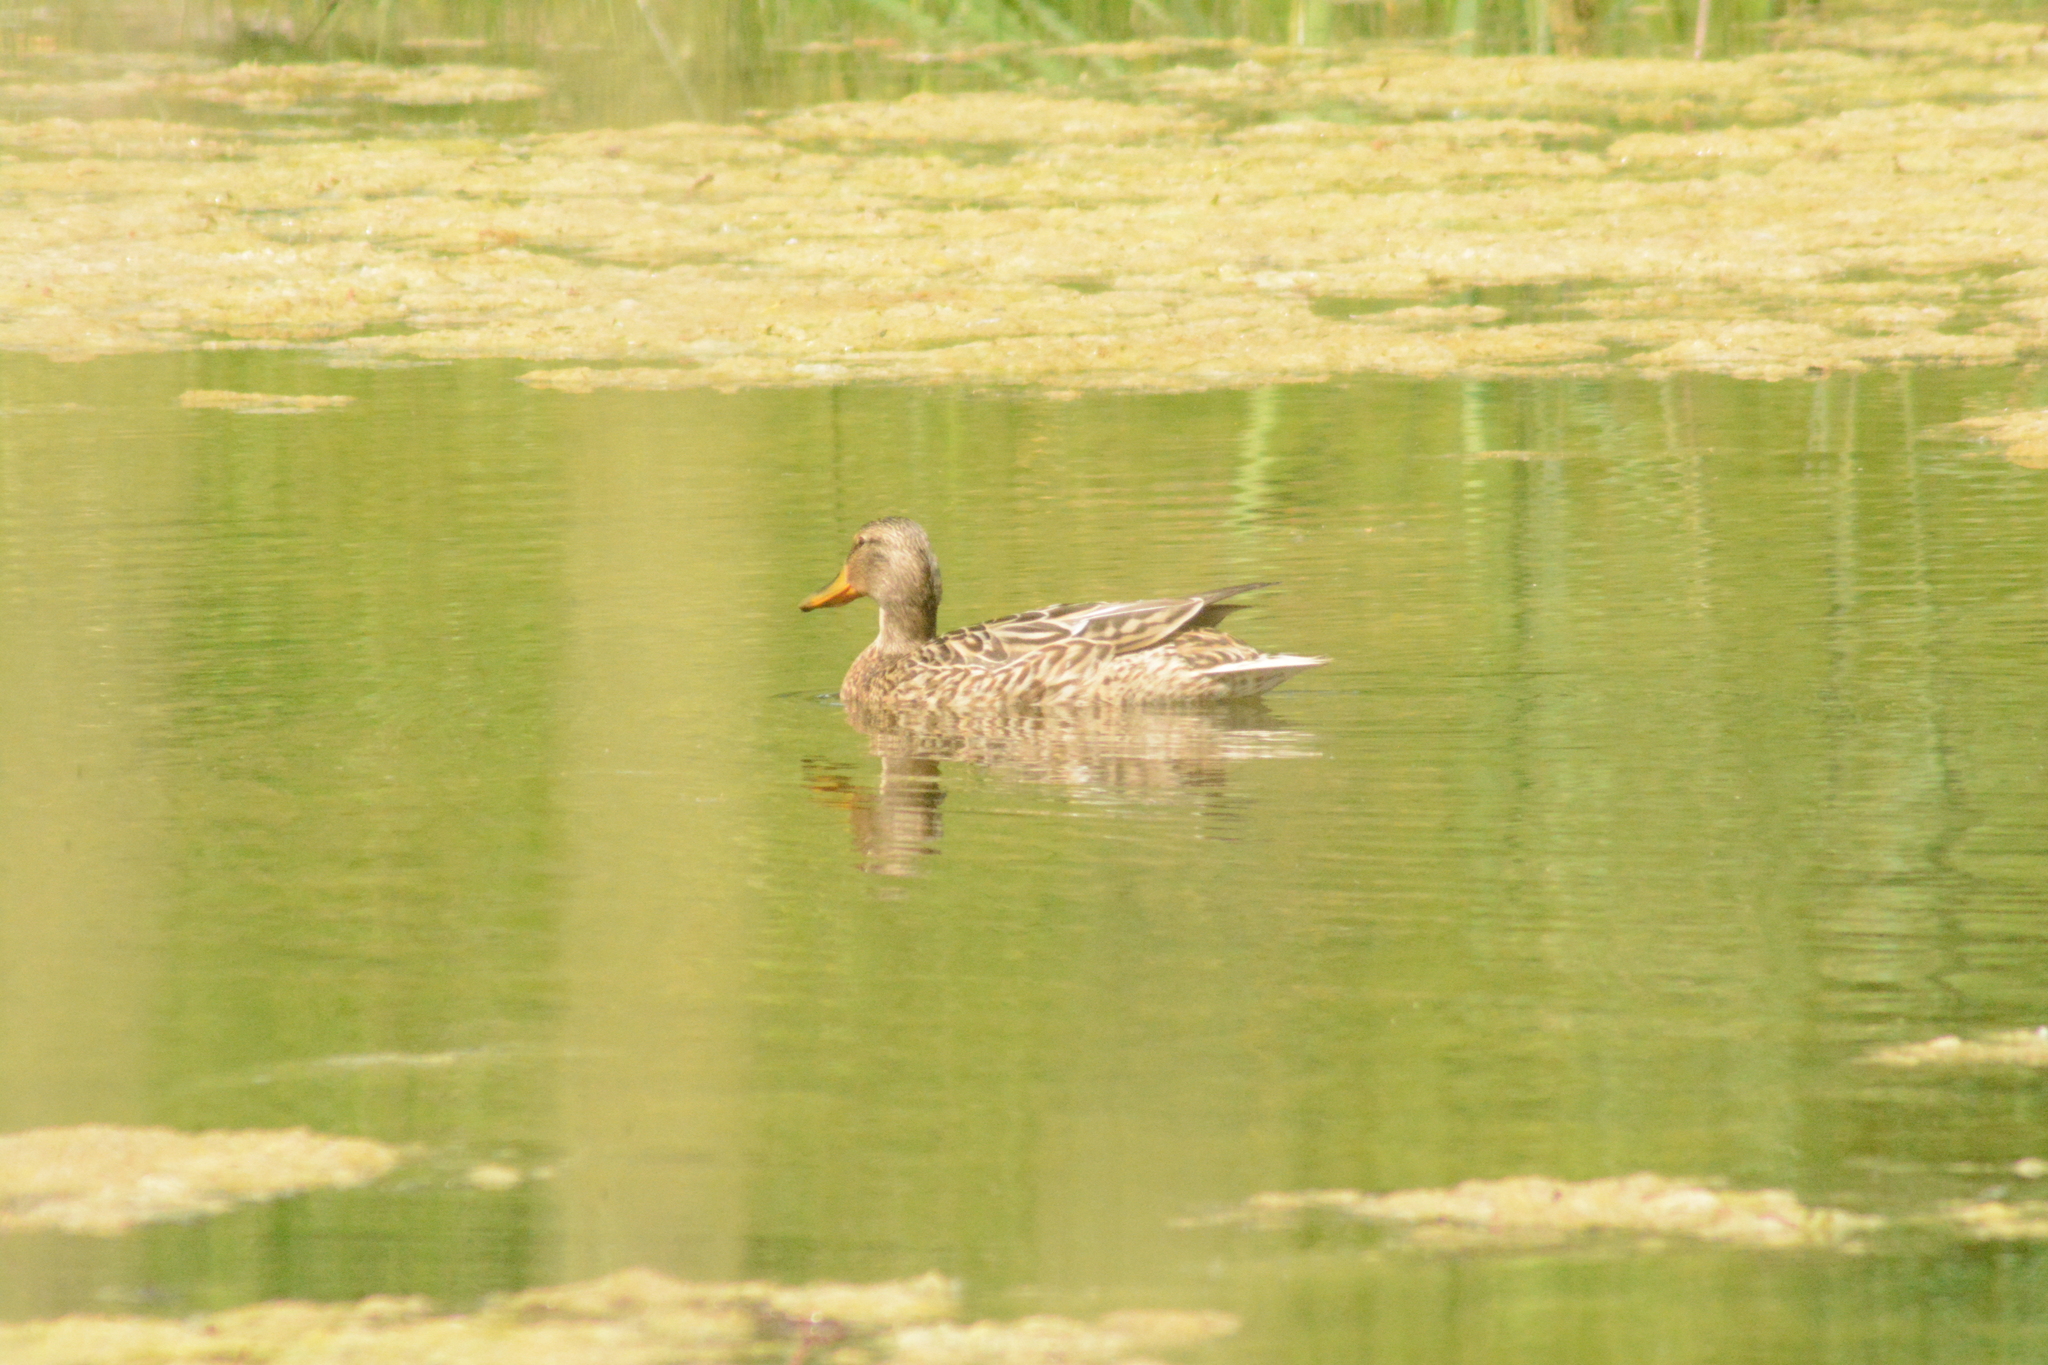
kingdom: Animalia
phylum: Chordata
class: Aves
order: Anseriformes
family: Anatidae
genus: Anas
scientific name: Anas platyrhynchos
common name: Mallard
